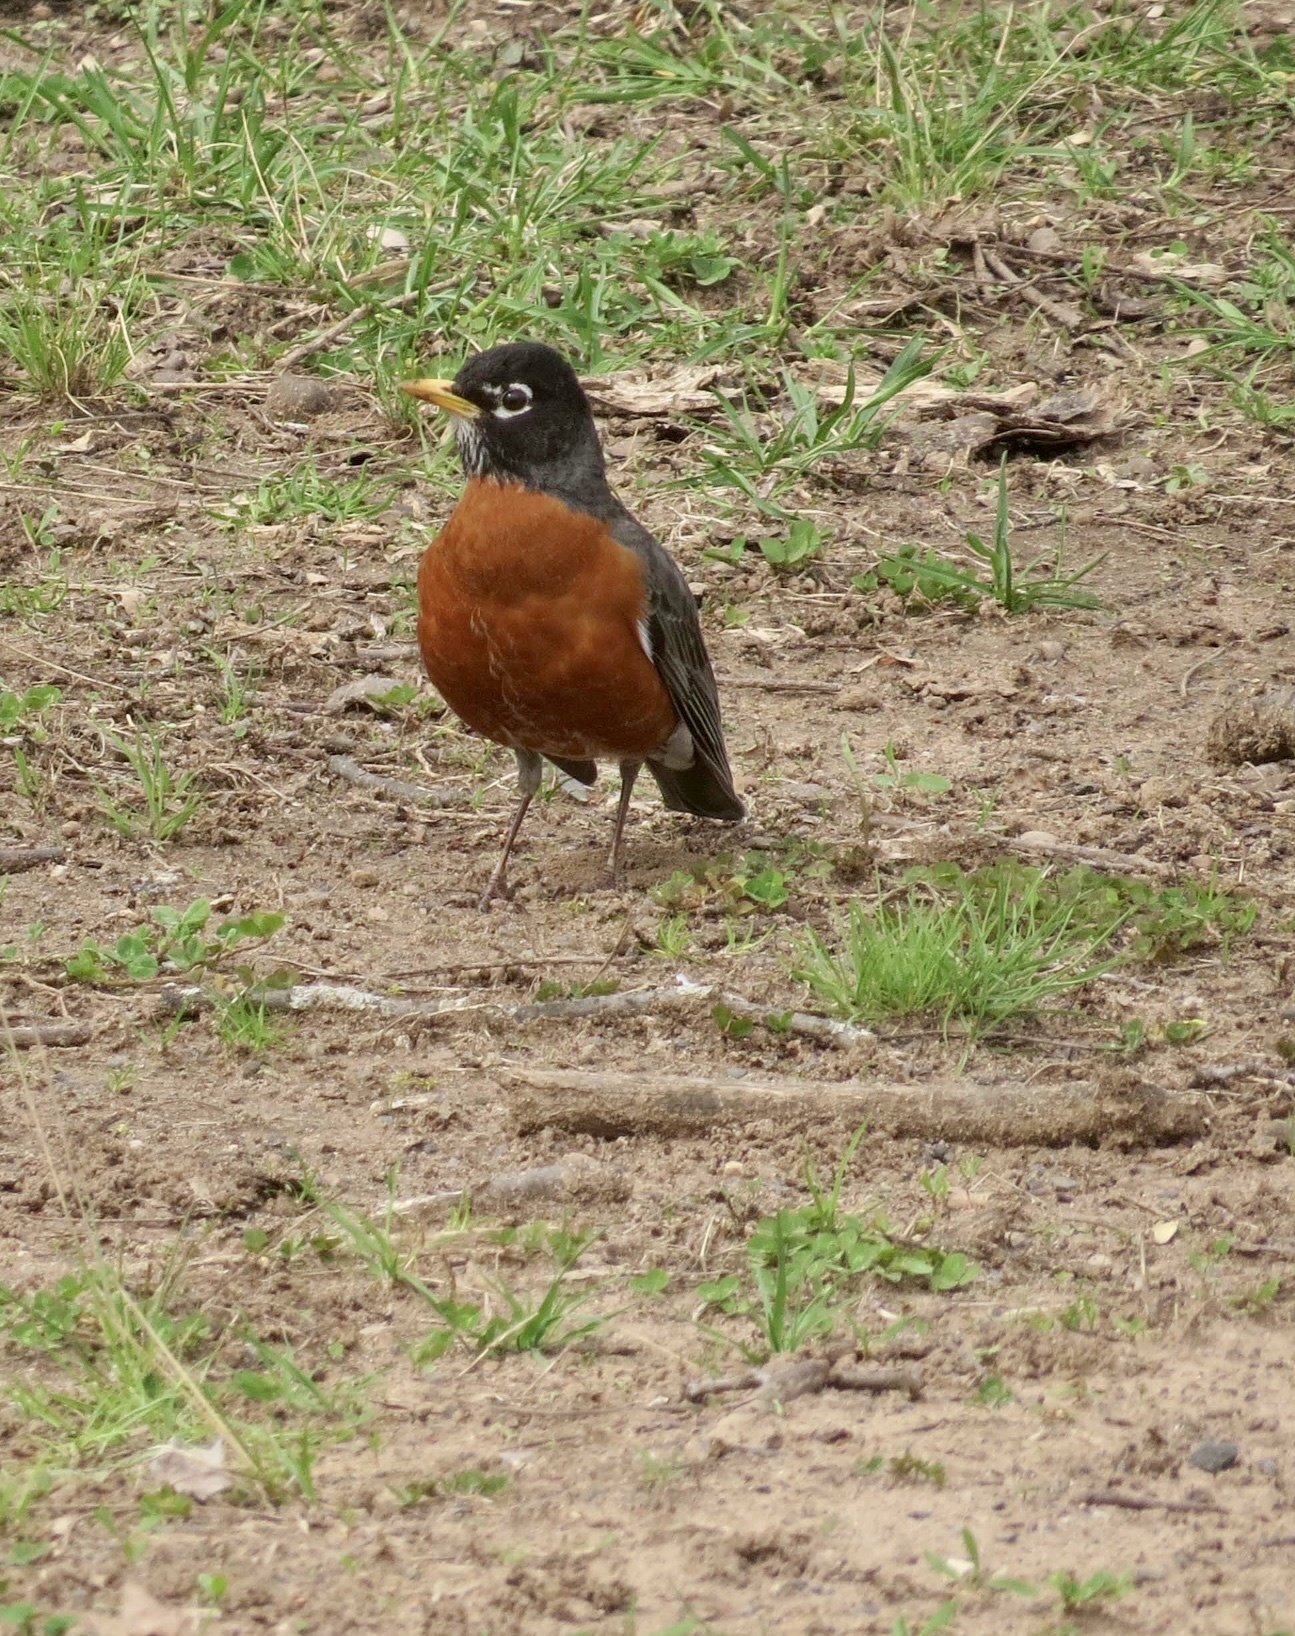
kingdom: Animalia
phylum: Chordata
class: Aves
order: Passeriformes
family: Turdidae
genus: Turdus
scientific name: Turdus migratorius
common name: American robin
